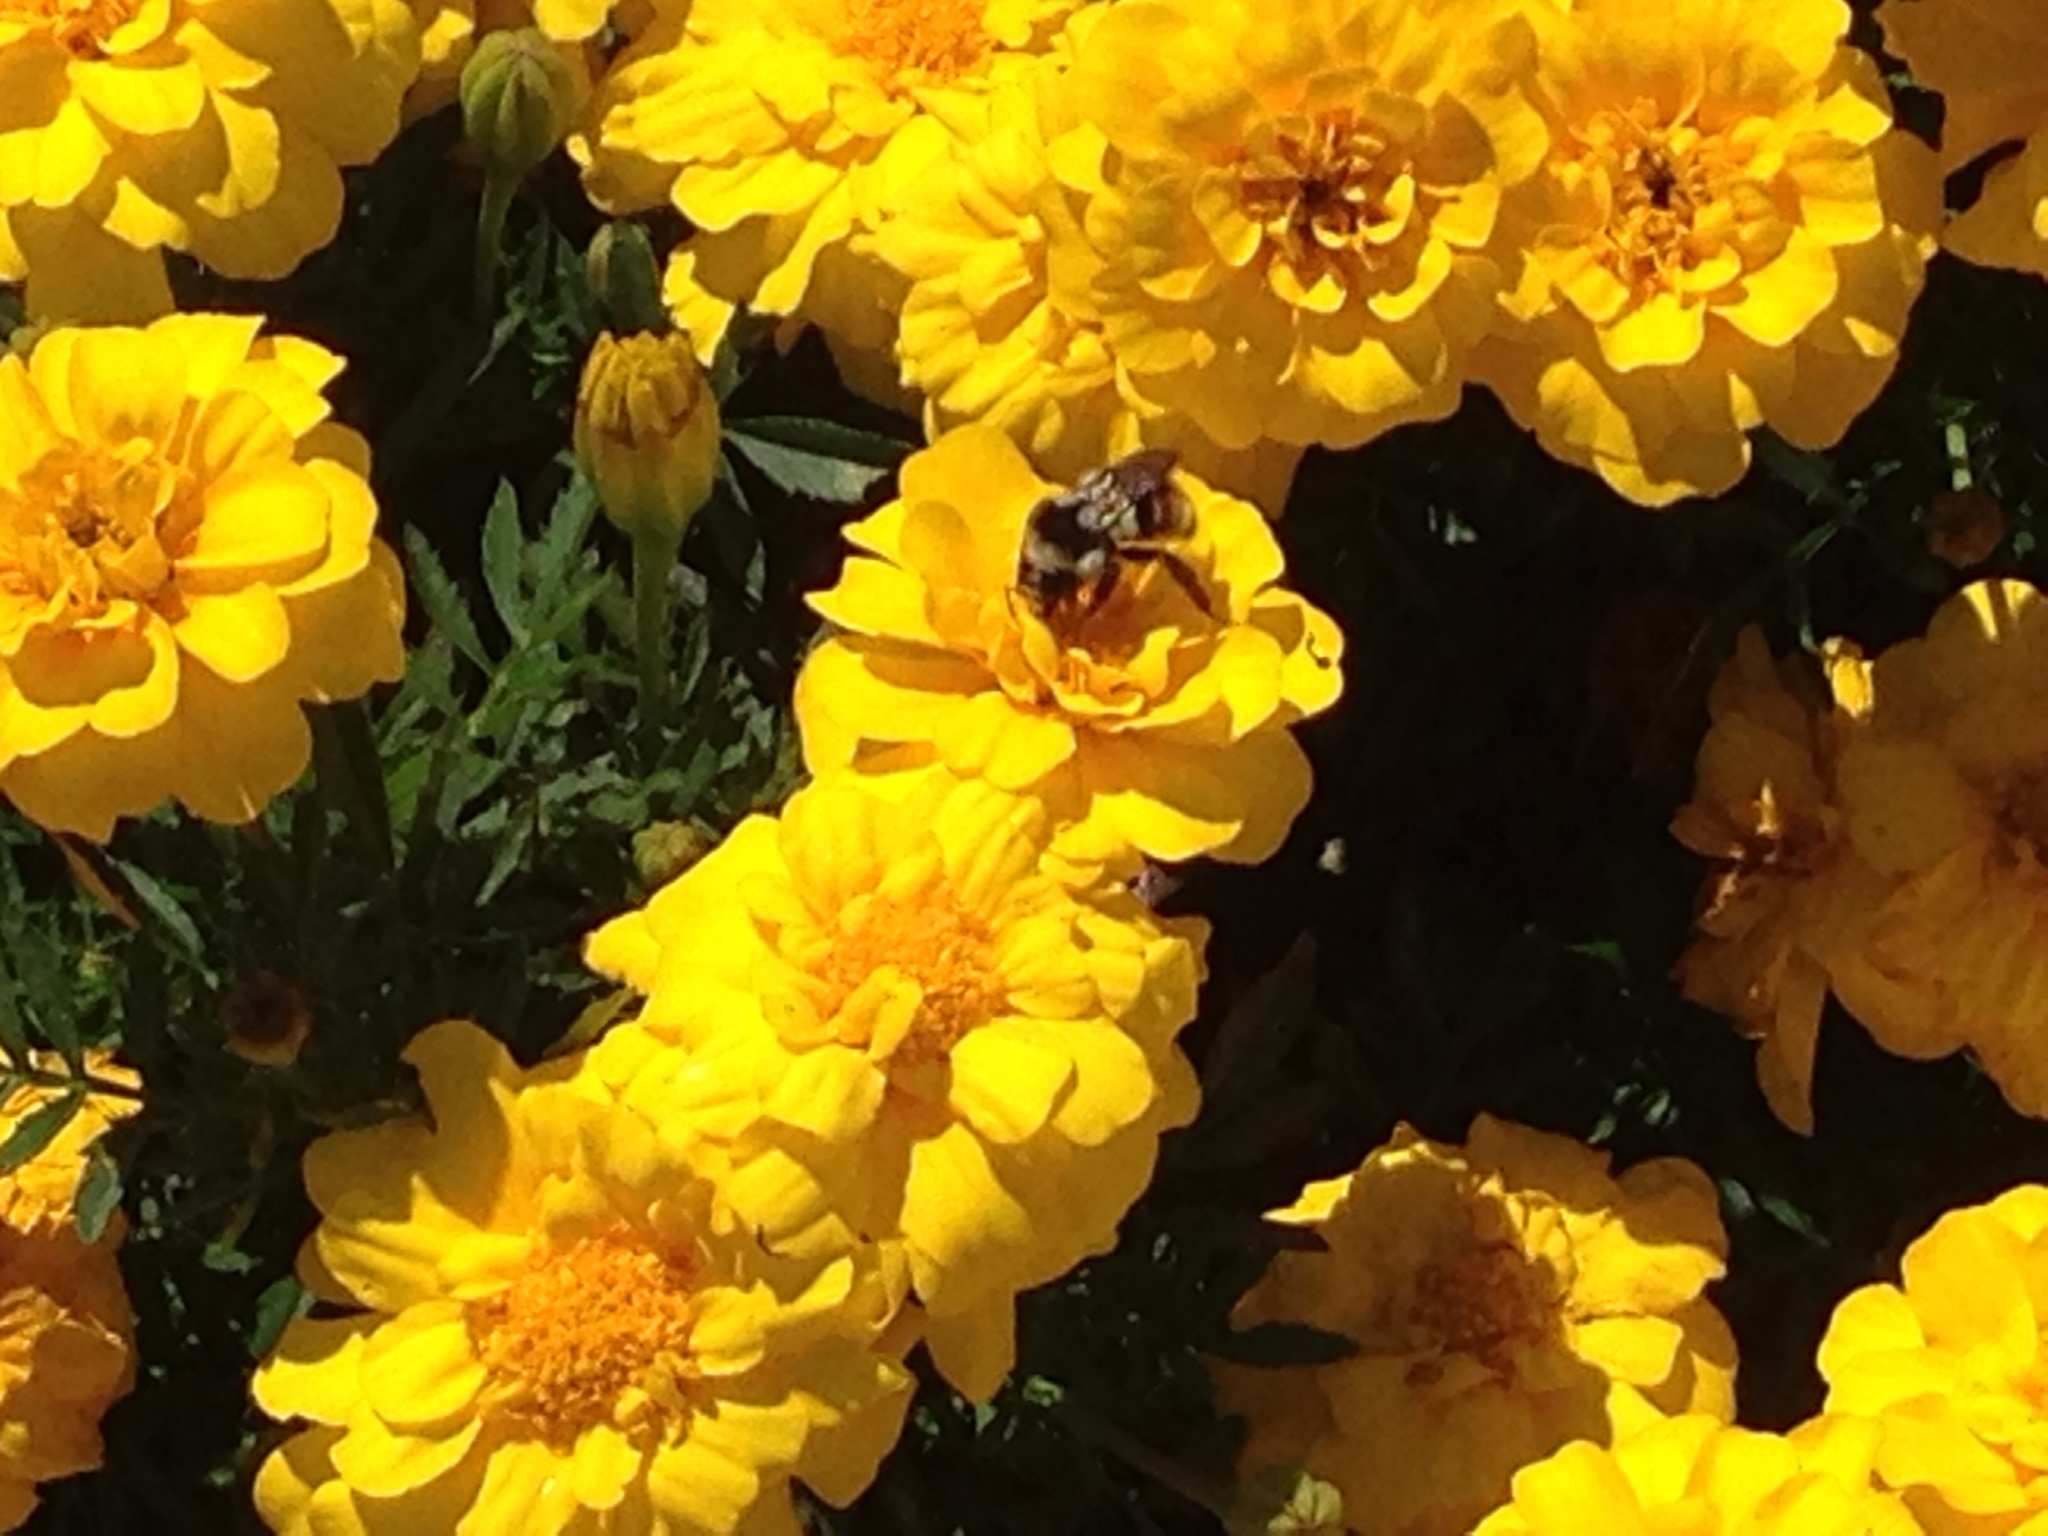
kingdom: Animalia
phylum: Arthropoda
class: Insecta
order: Hymenoptera
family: Apidae
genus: Bombus
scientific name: Bombus vancouverensis
